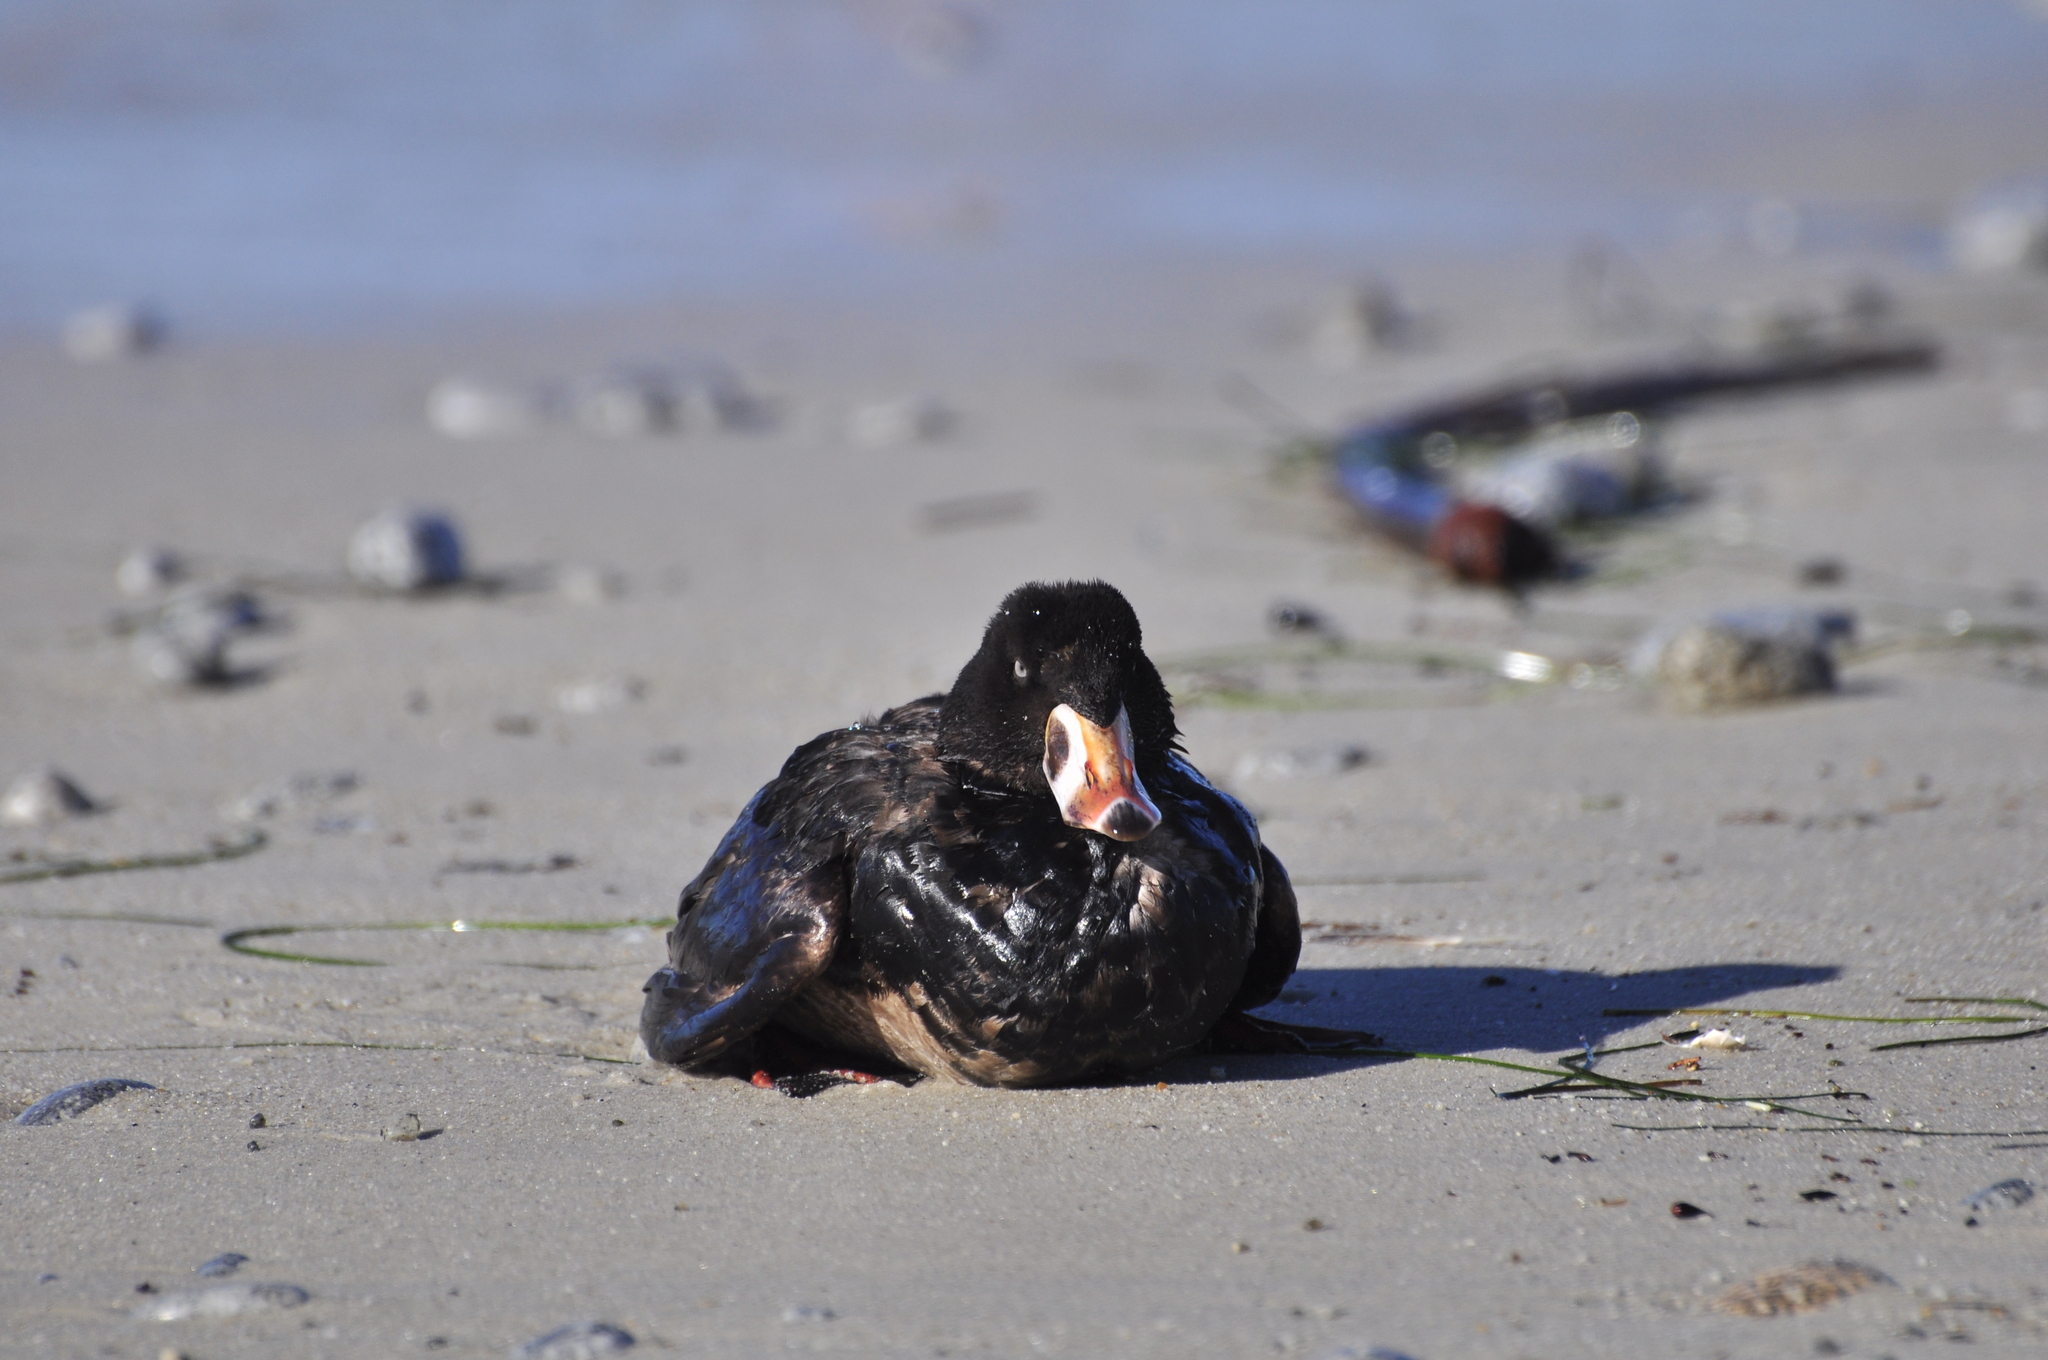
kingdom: Animalia
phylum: Chordata
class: Aves
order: Anseriformes
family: Anatidae
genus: Melanitta
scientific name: Melanitta perspicillata
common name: Surf scoter
